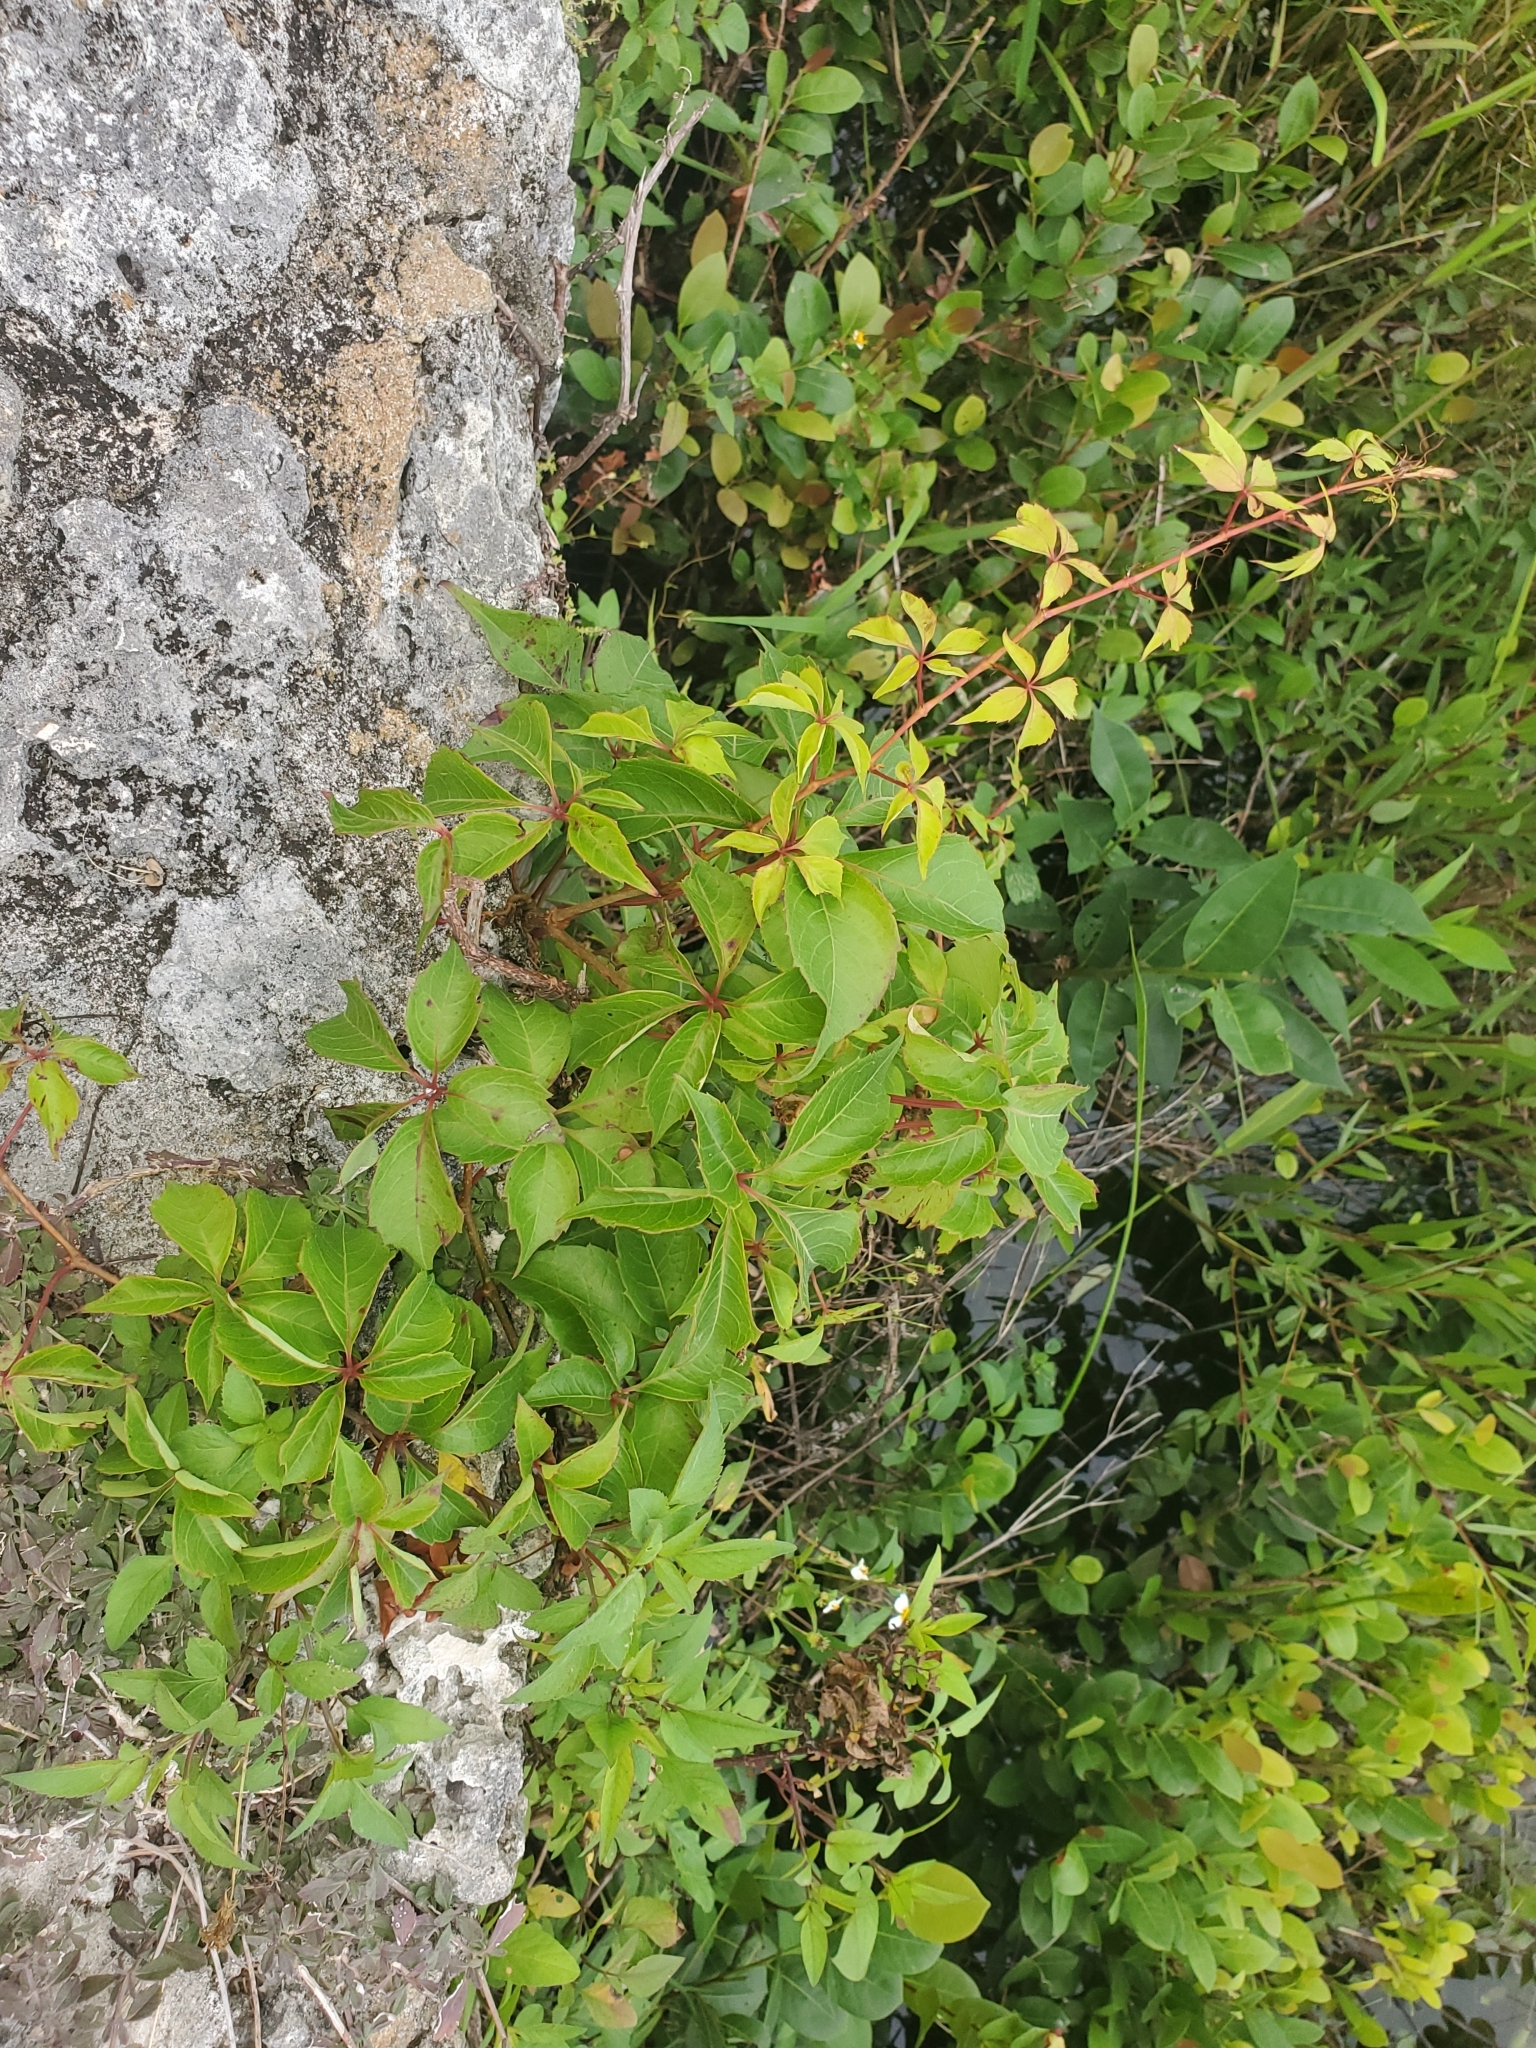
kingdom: Plantae
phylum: Tracheophyta
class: Magnoliopsida
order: Vitales
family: Vitaceae
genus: Parthenocissus
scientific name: Parthenocissus quinquefolia
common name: Virginia-creeper
